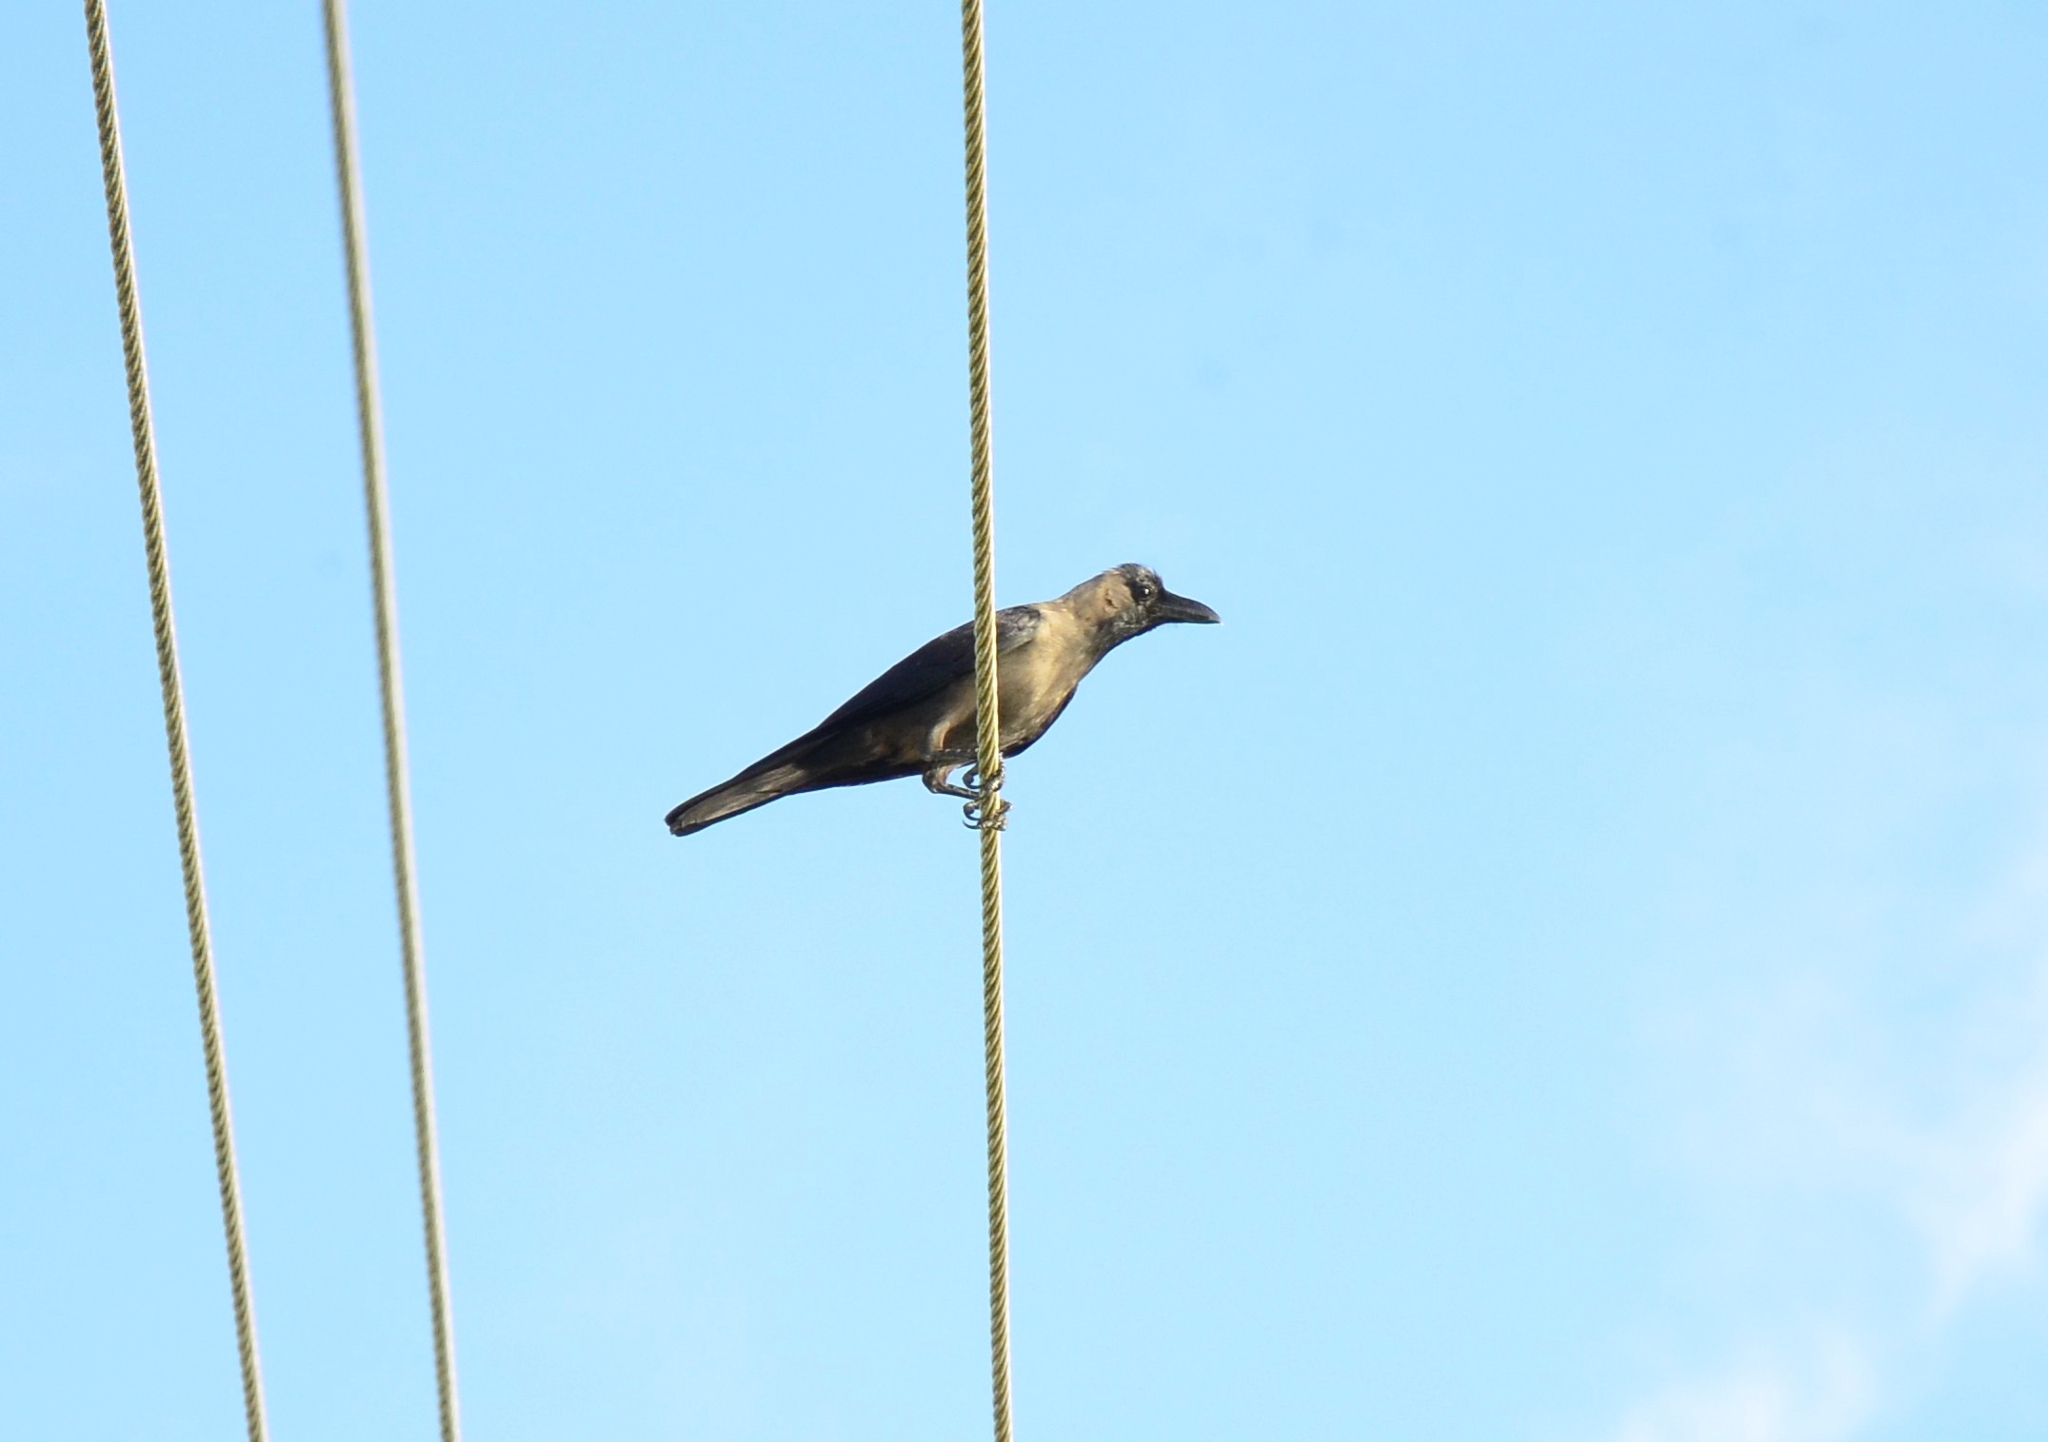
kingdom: Animalia
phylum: Chordata
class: Aves
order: Passeriformes
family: Corvidae
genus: Corvus
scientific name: Corvus splendens
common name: House crow
